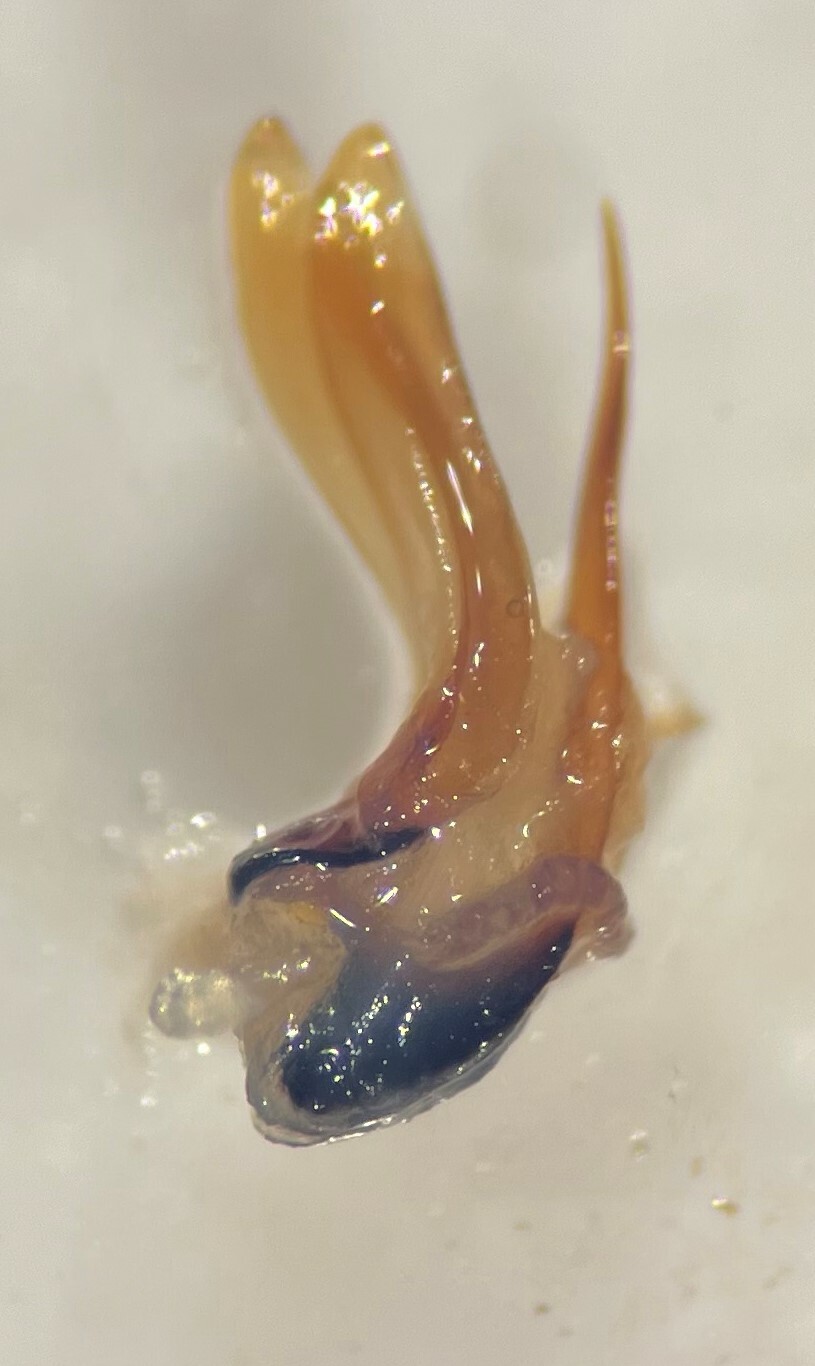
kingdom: Animalia
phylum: Arthropoda
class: Insecta
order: Coleoptera
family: Dytiscidae
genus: Hygrotus
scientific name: Hygrotus infuscatus
